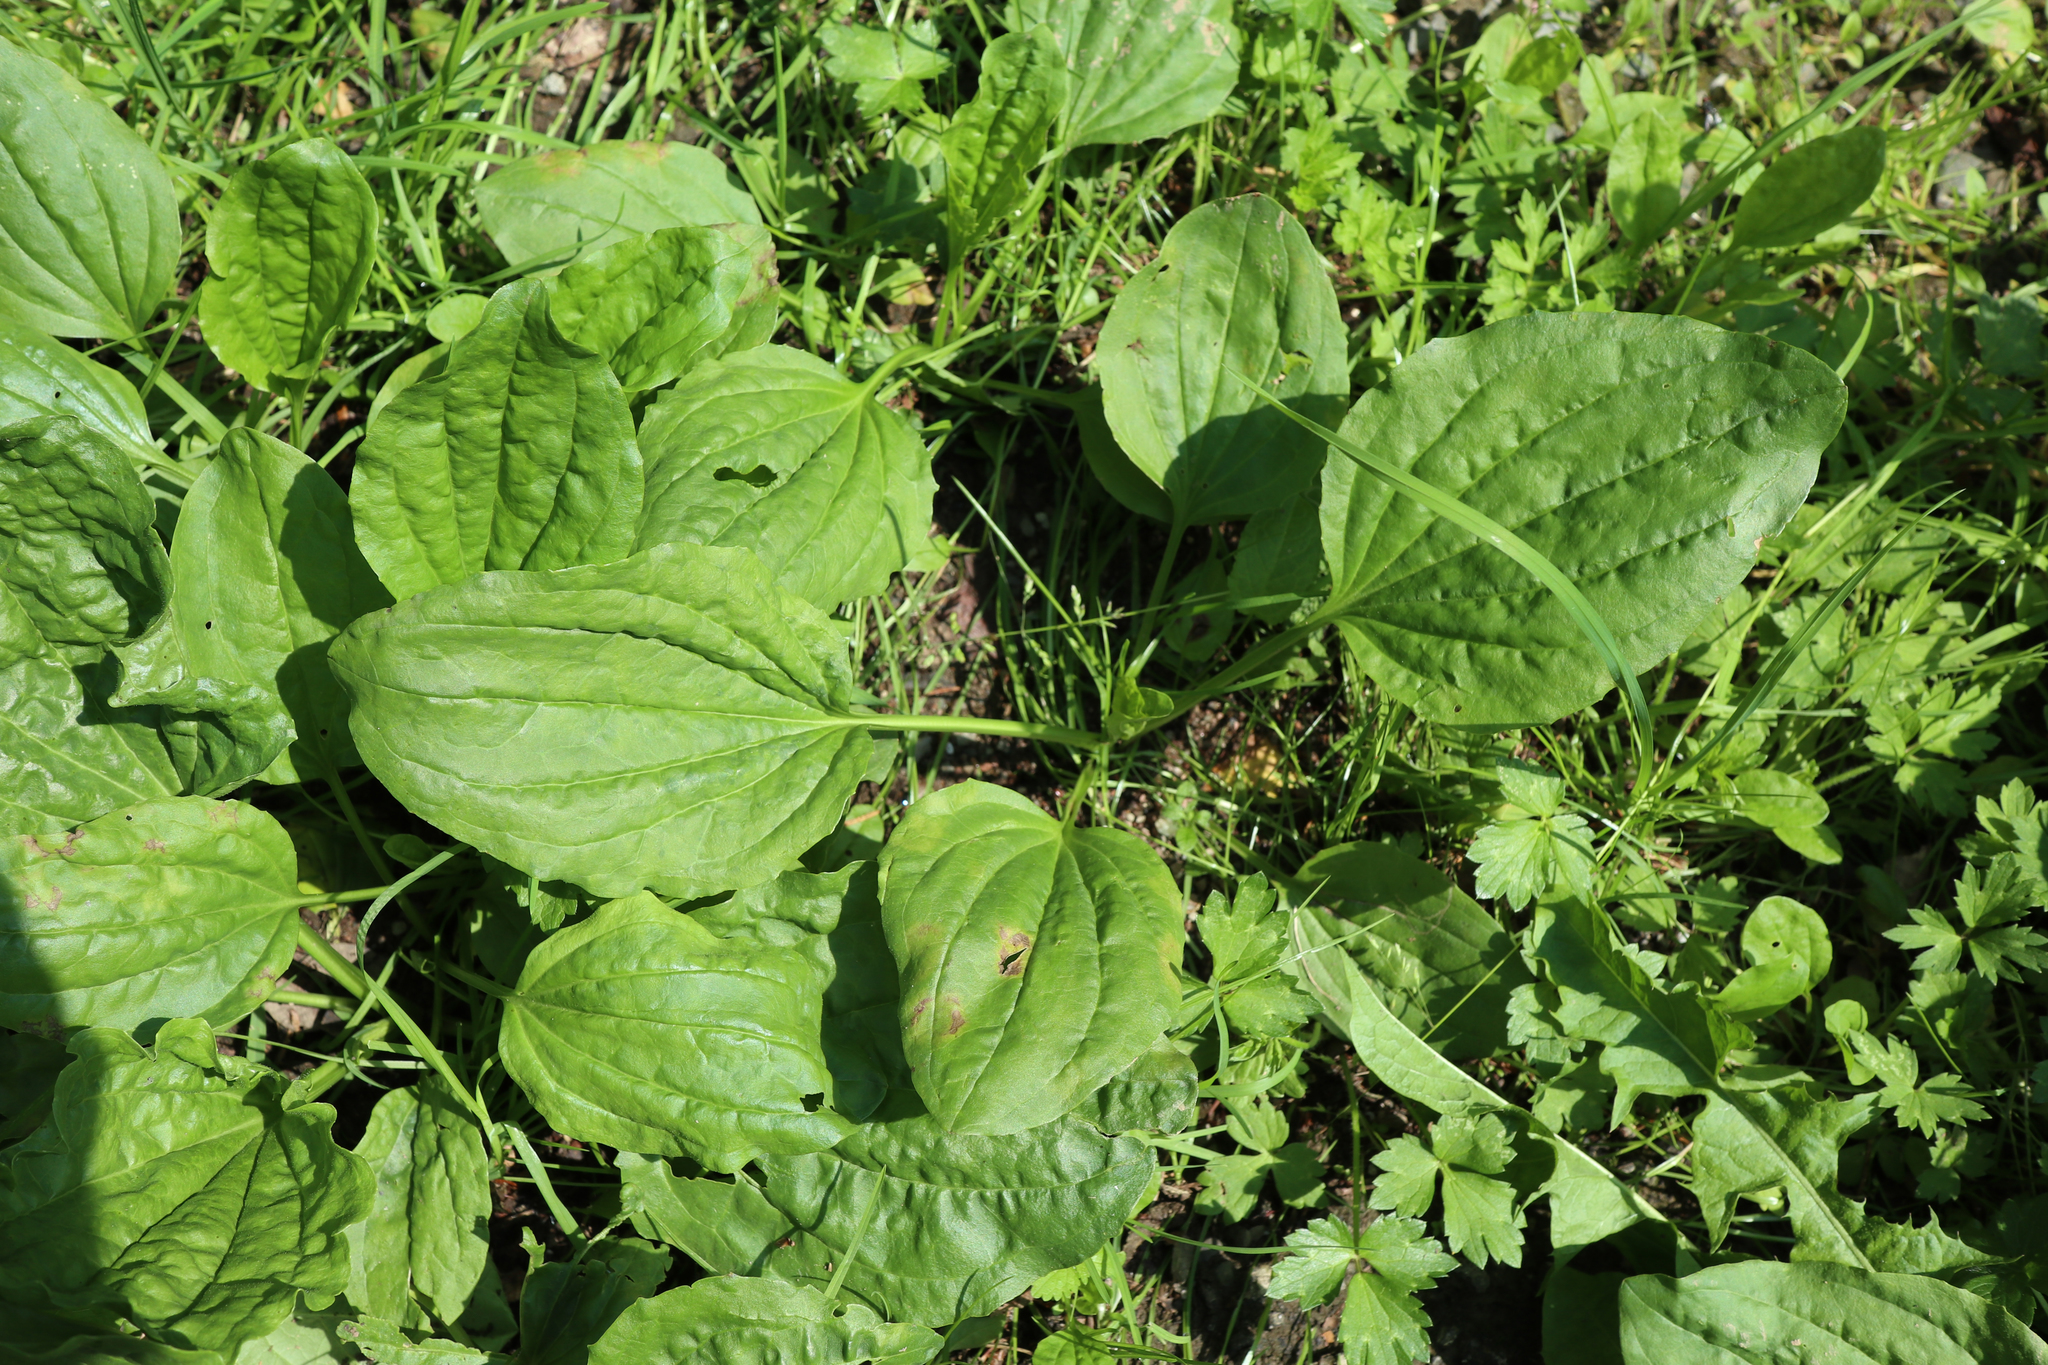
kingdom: Plantae
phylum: Tracheophyta
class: Magnoliopsida
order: Lamiales
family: Plantaginaceae
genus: Plantago
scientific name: Plantago major
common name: Common plantain
